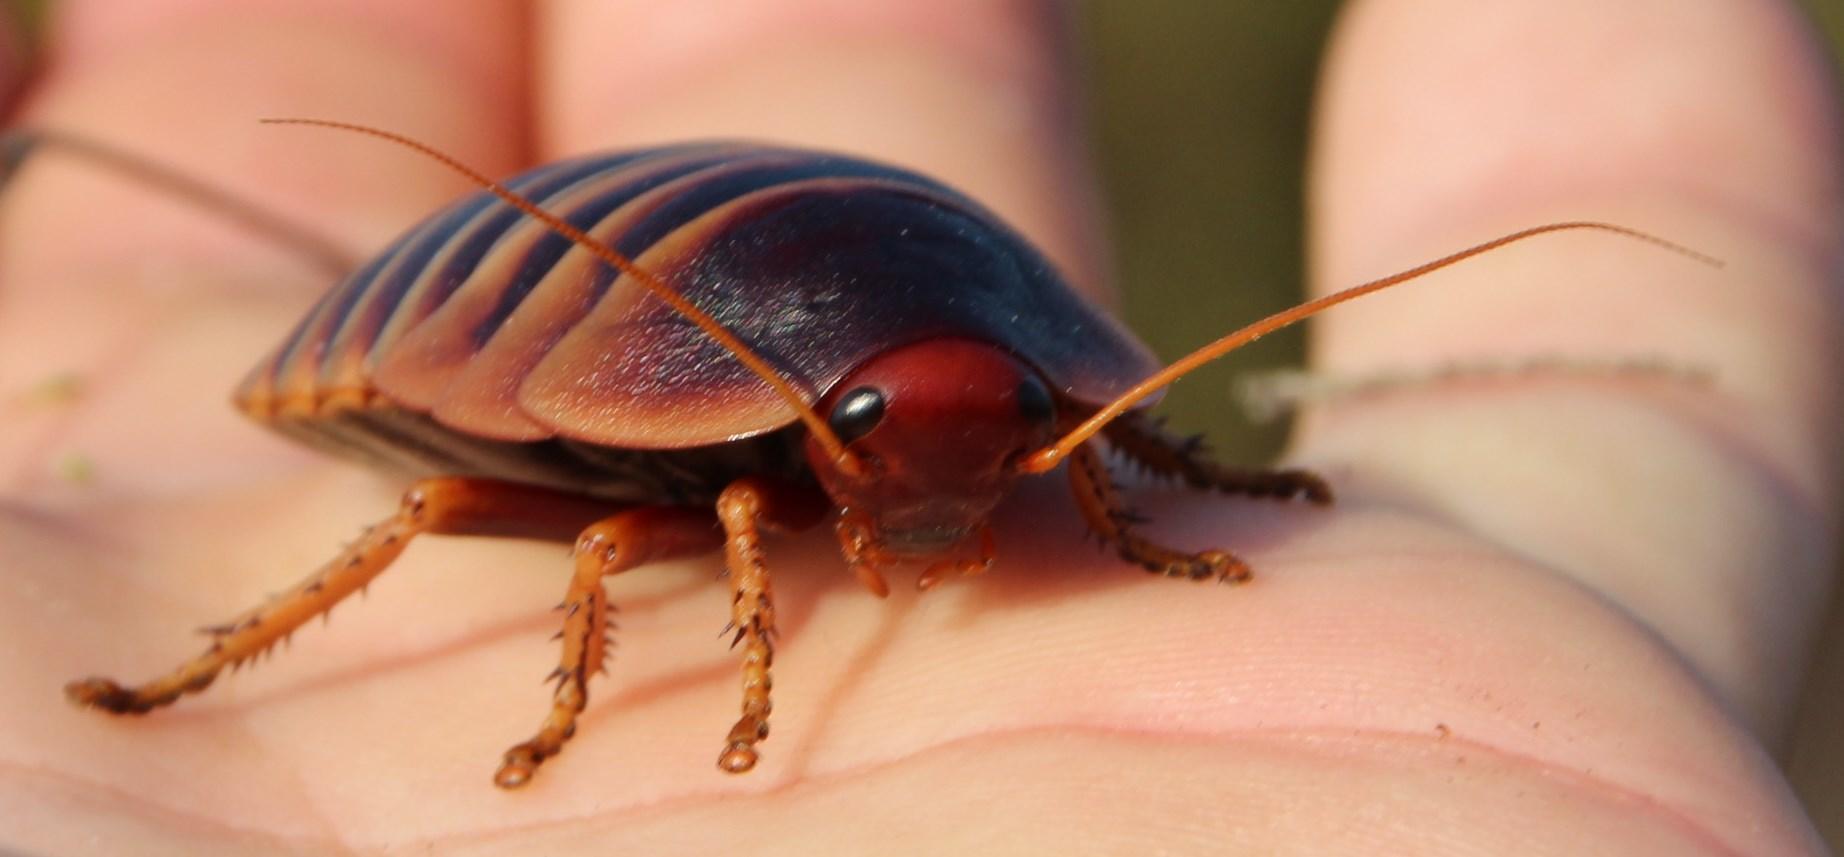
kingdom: Animalia
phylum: Arthropoda
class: Insecta
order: Blattodea
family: Blaberidae
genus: Aptera
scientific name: Aptera fusca
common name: Cape mountain cockroach
